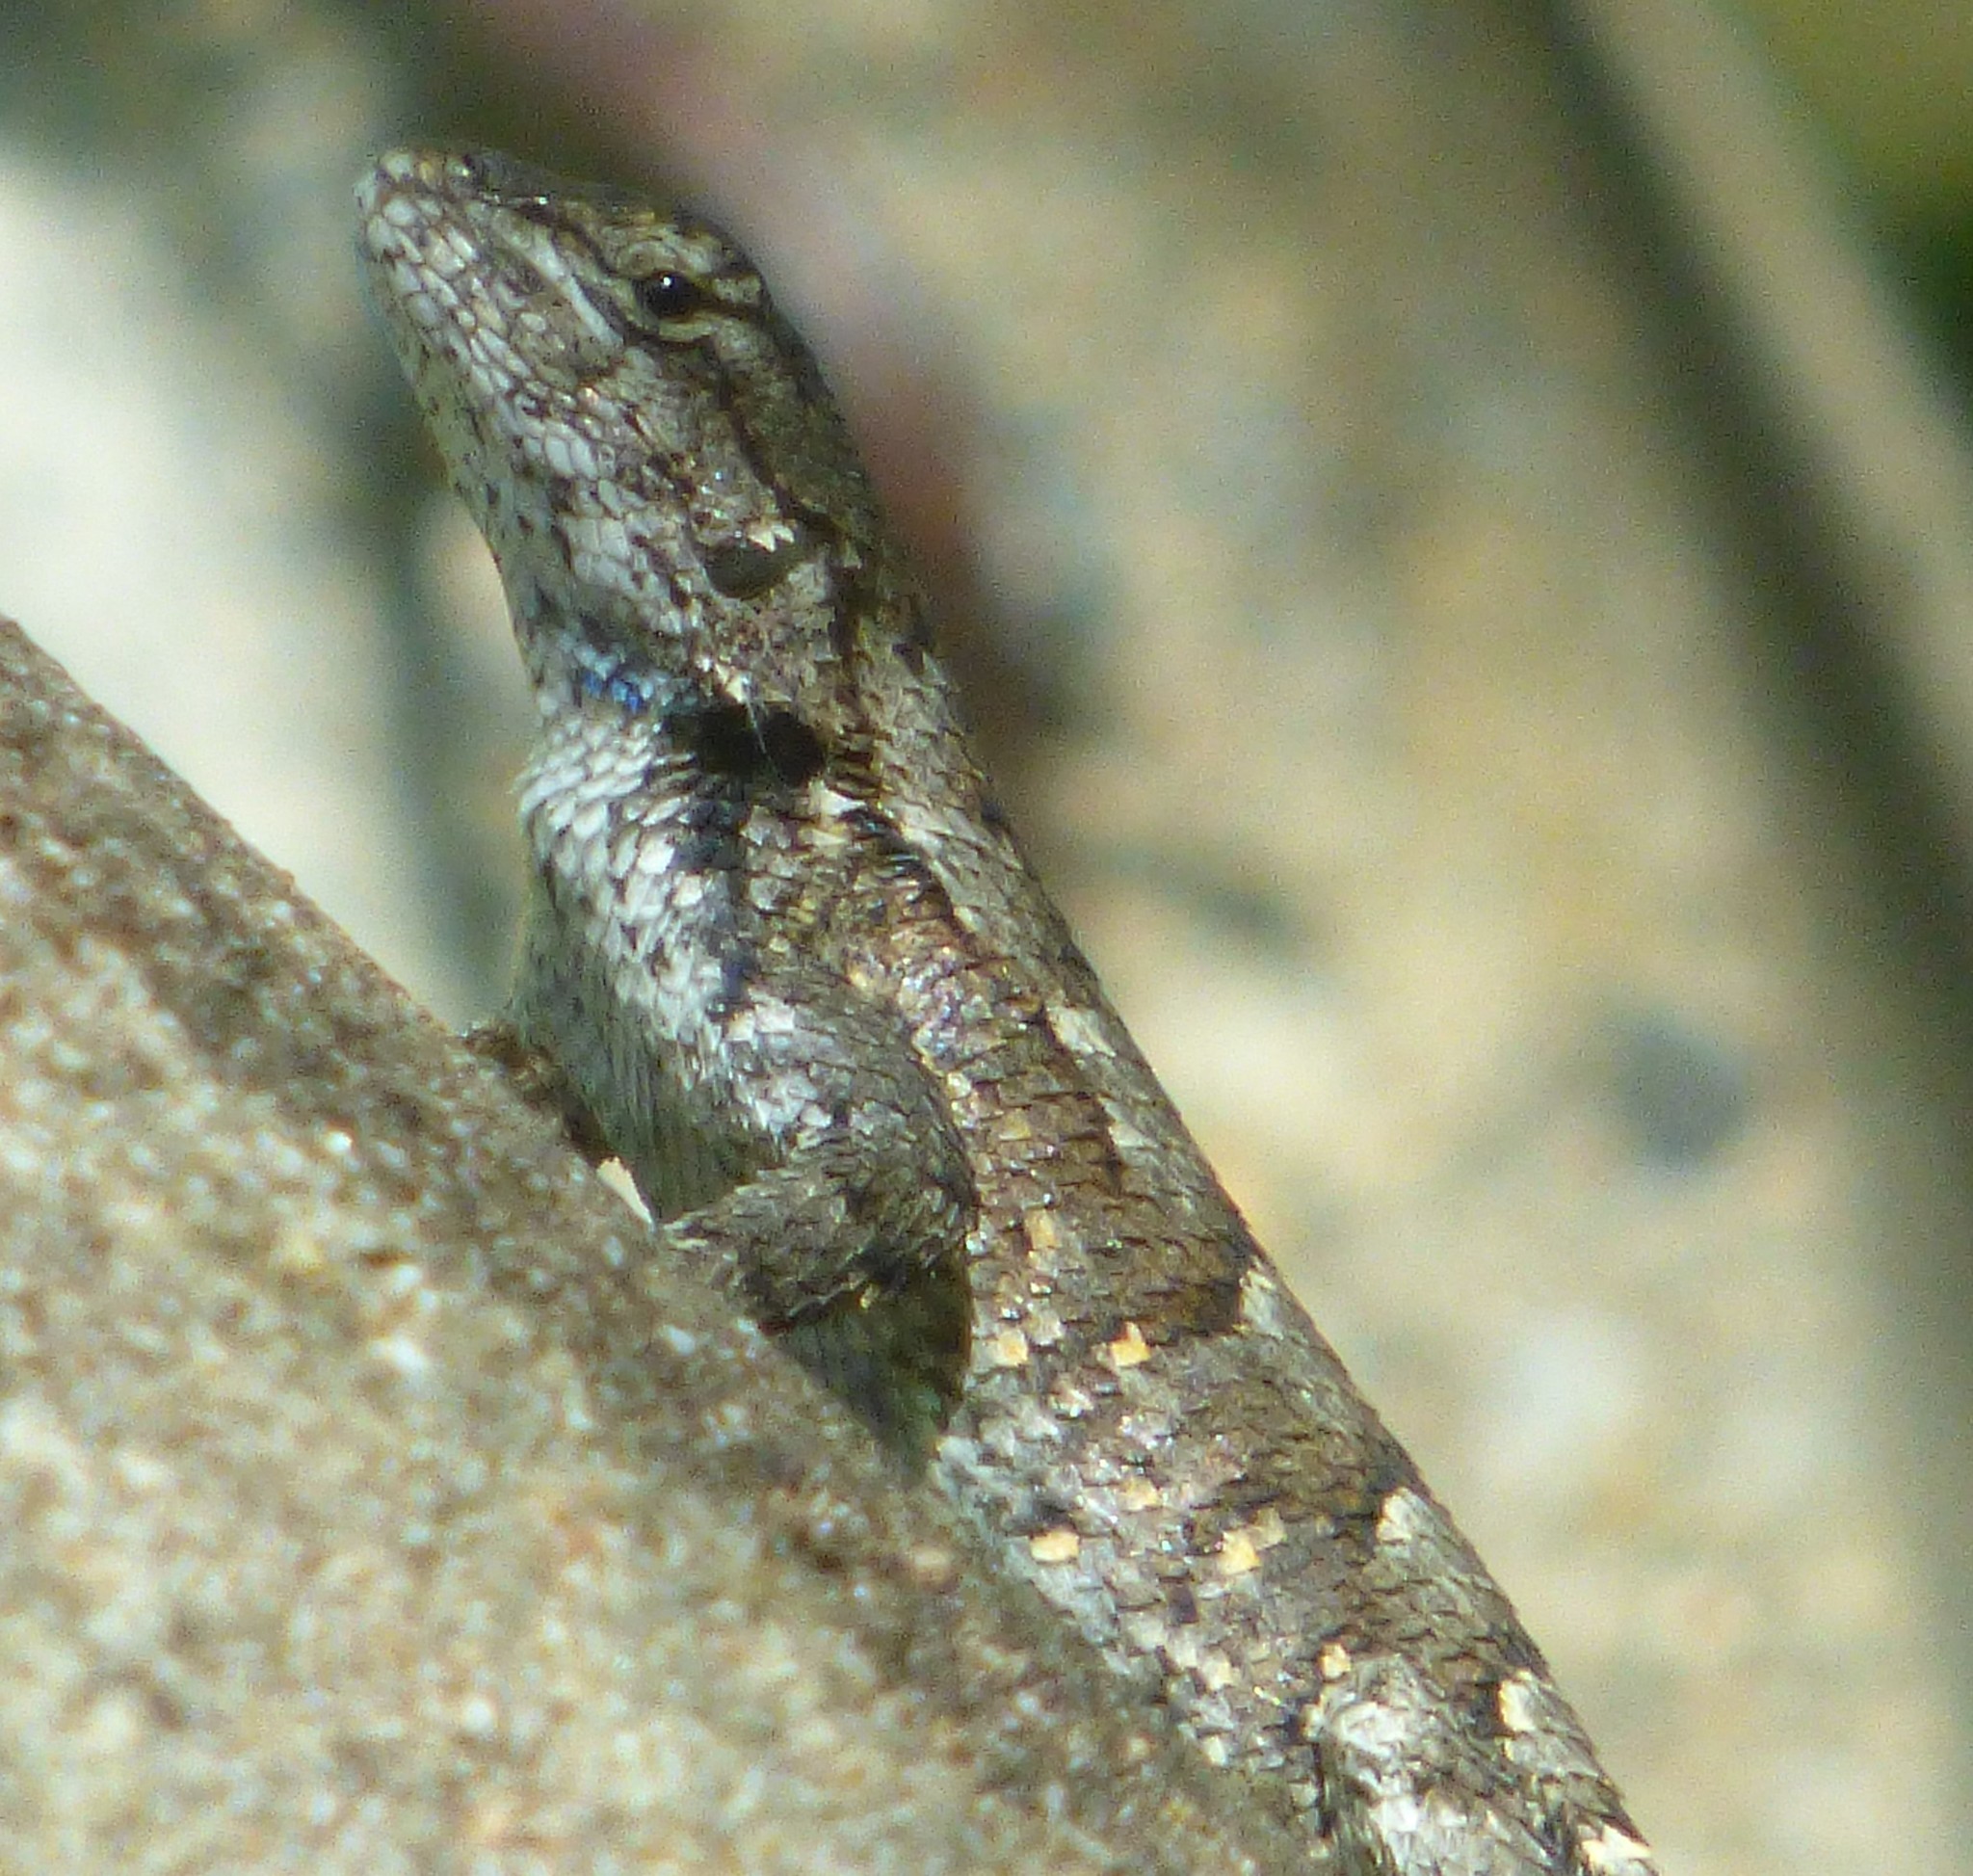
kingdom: Animalia
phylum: Chordata
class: Squamata
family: Phrynosomatidae
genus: Sceloporus
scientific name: Sceloporus undulatus
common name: Eastern fence lizard
